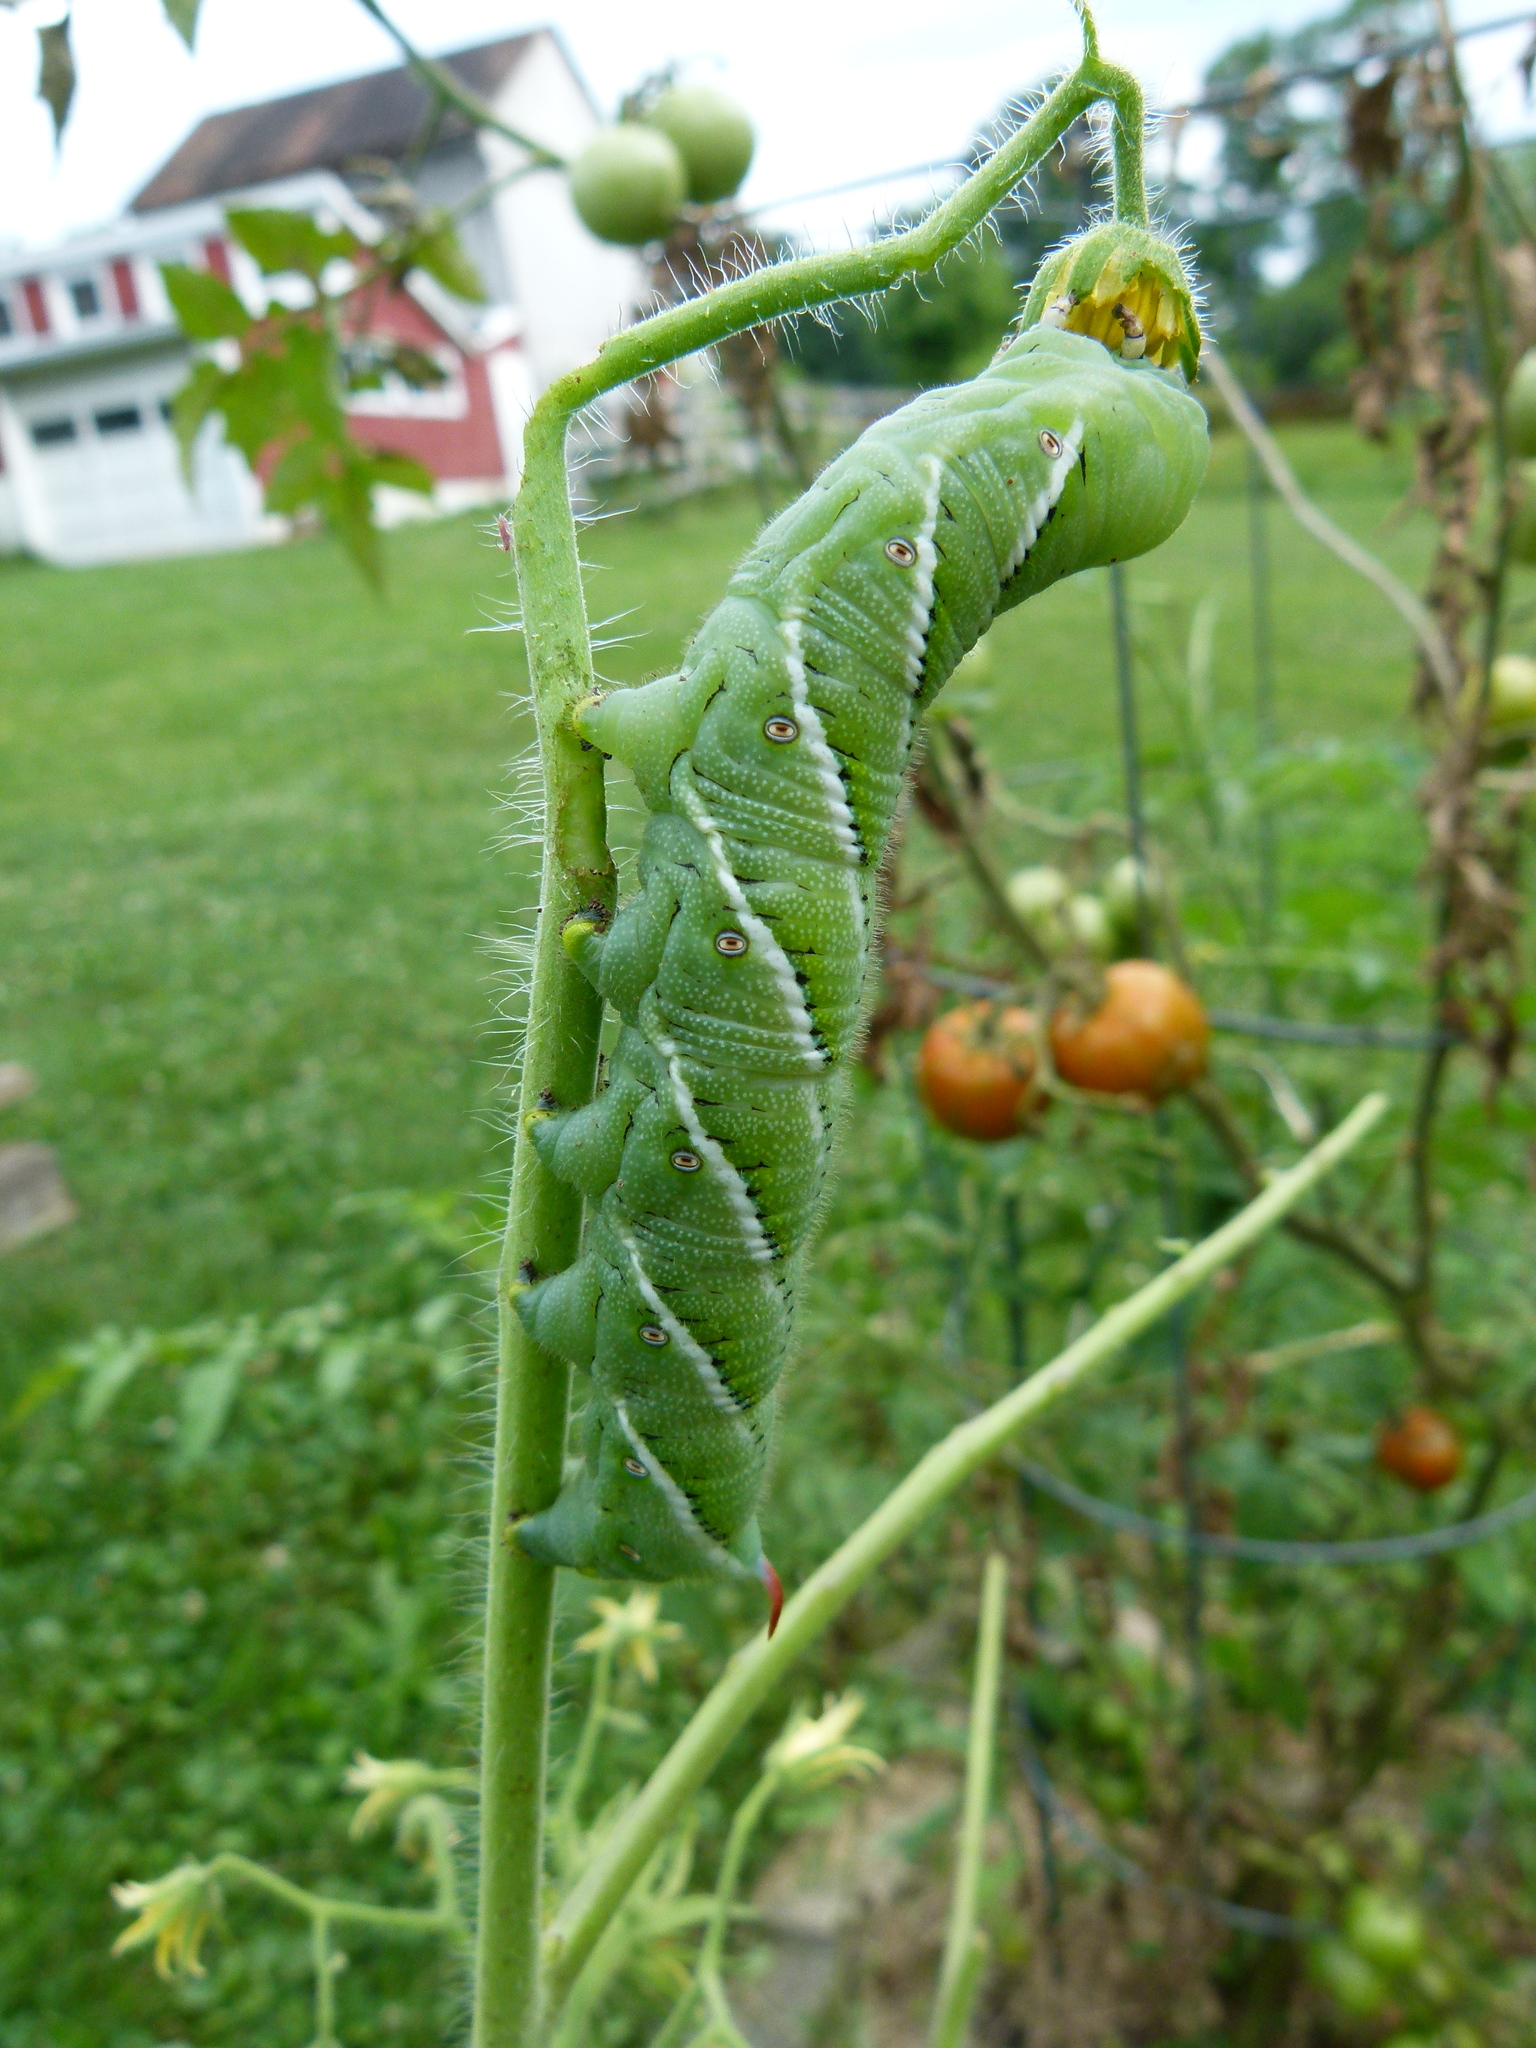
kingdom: Animalia
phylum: Arthropoda
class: Insecta
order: Lepidoptera
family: Sphingidae
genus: Manduca
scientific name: Manduca sexta
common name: Carolina sphinx
